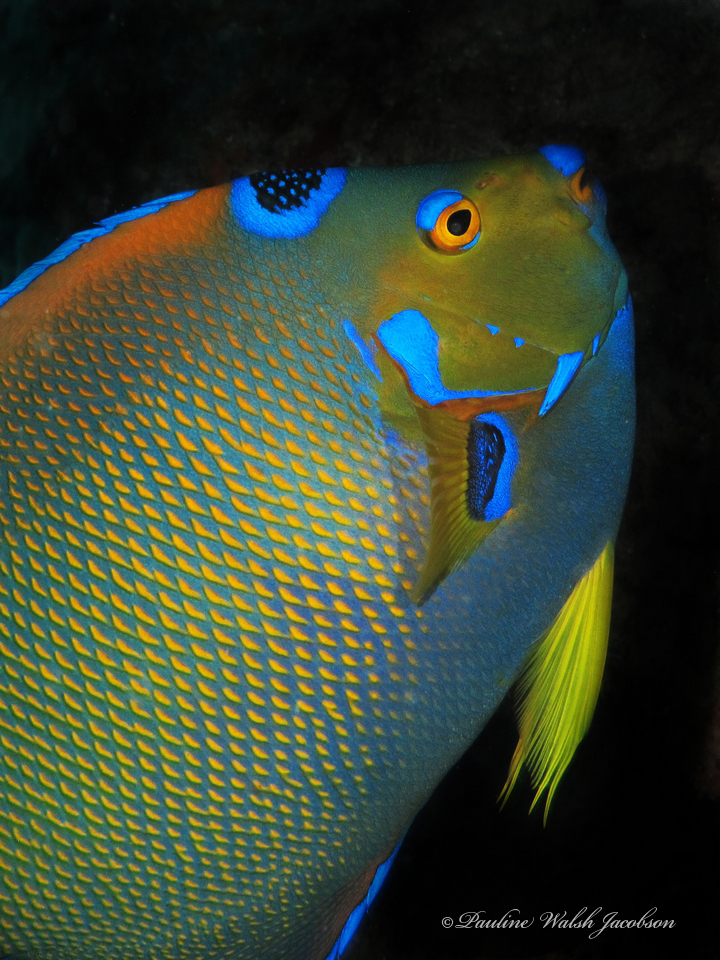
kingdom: Animalia
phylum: Chordata
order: Perciformes
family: Pomacanthidae
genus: Holacanthus
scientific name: Holacanthus ciliaris
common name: Queen angelfish
